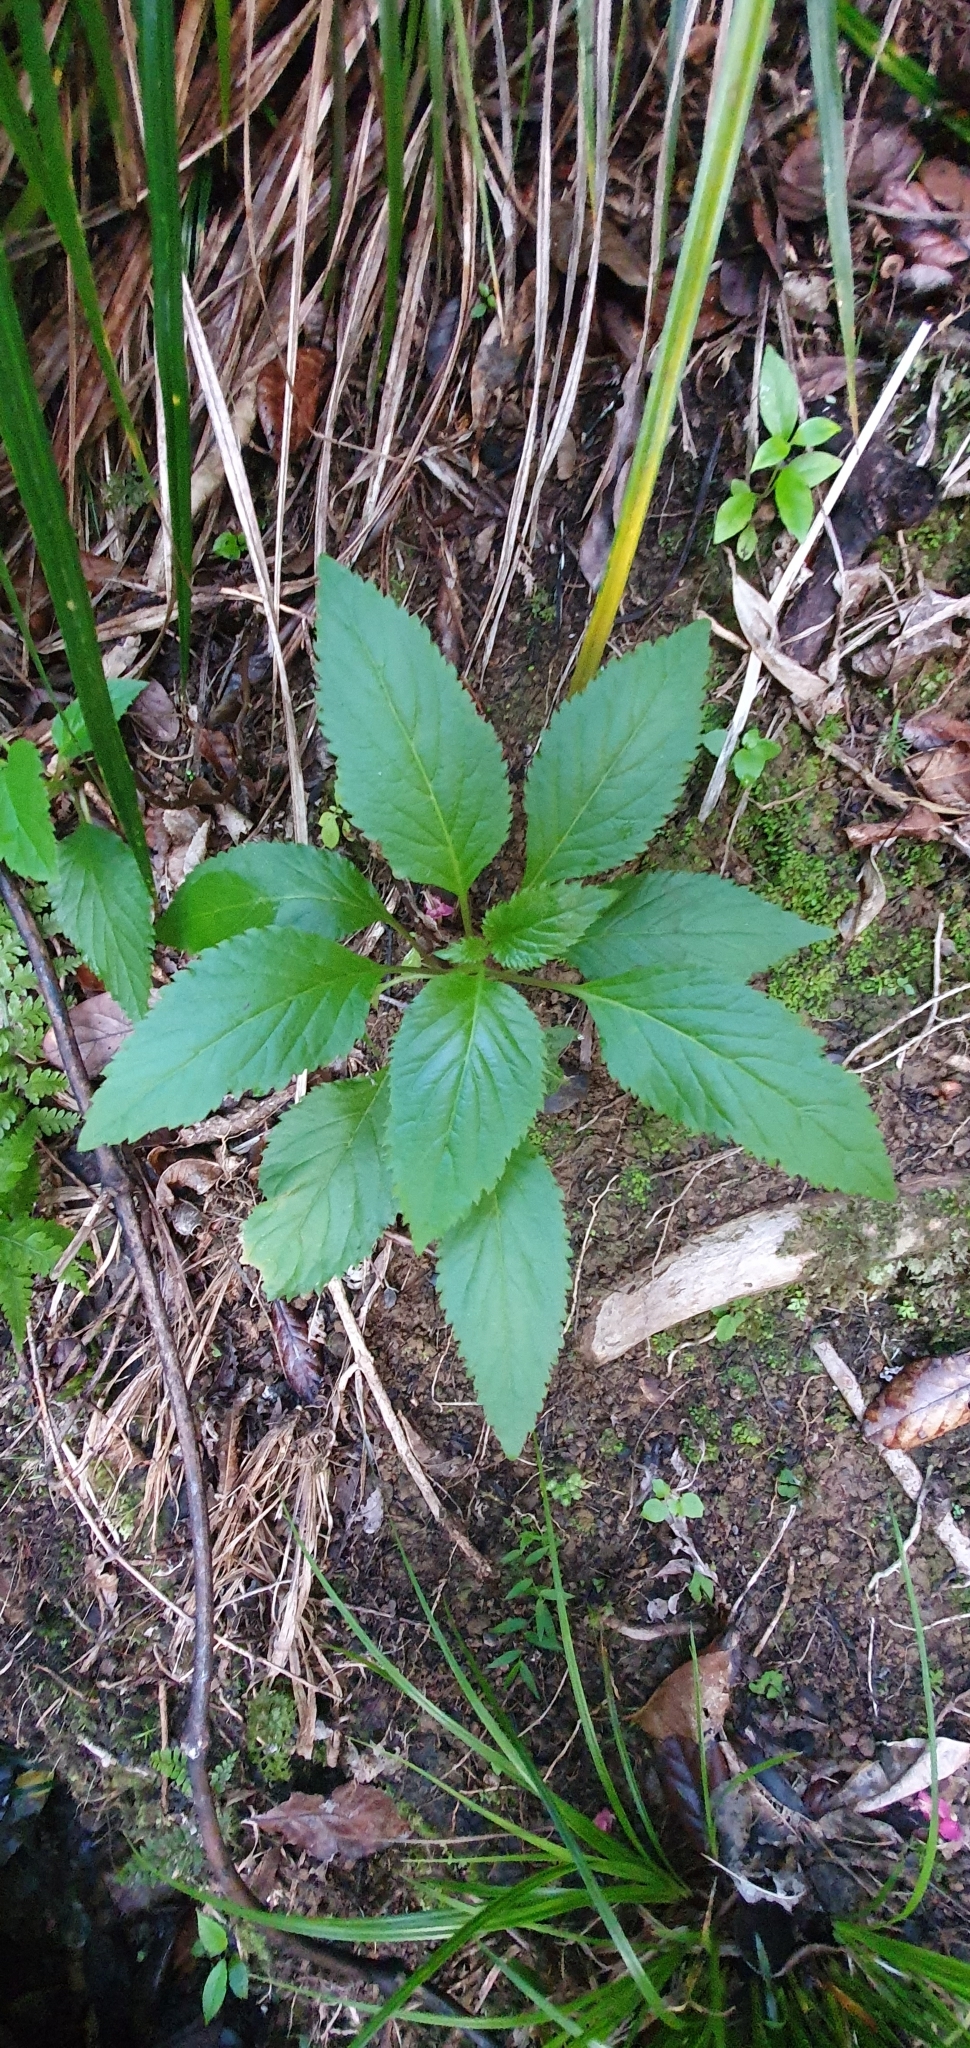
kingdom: Plantae
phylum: Tracheophyta
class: Magnoliopsida
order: Asterales
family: Campanulaceae
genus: Lobelia
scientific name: Lobelia physaloides
